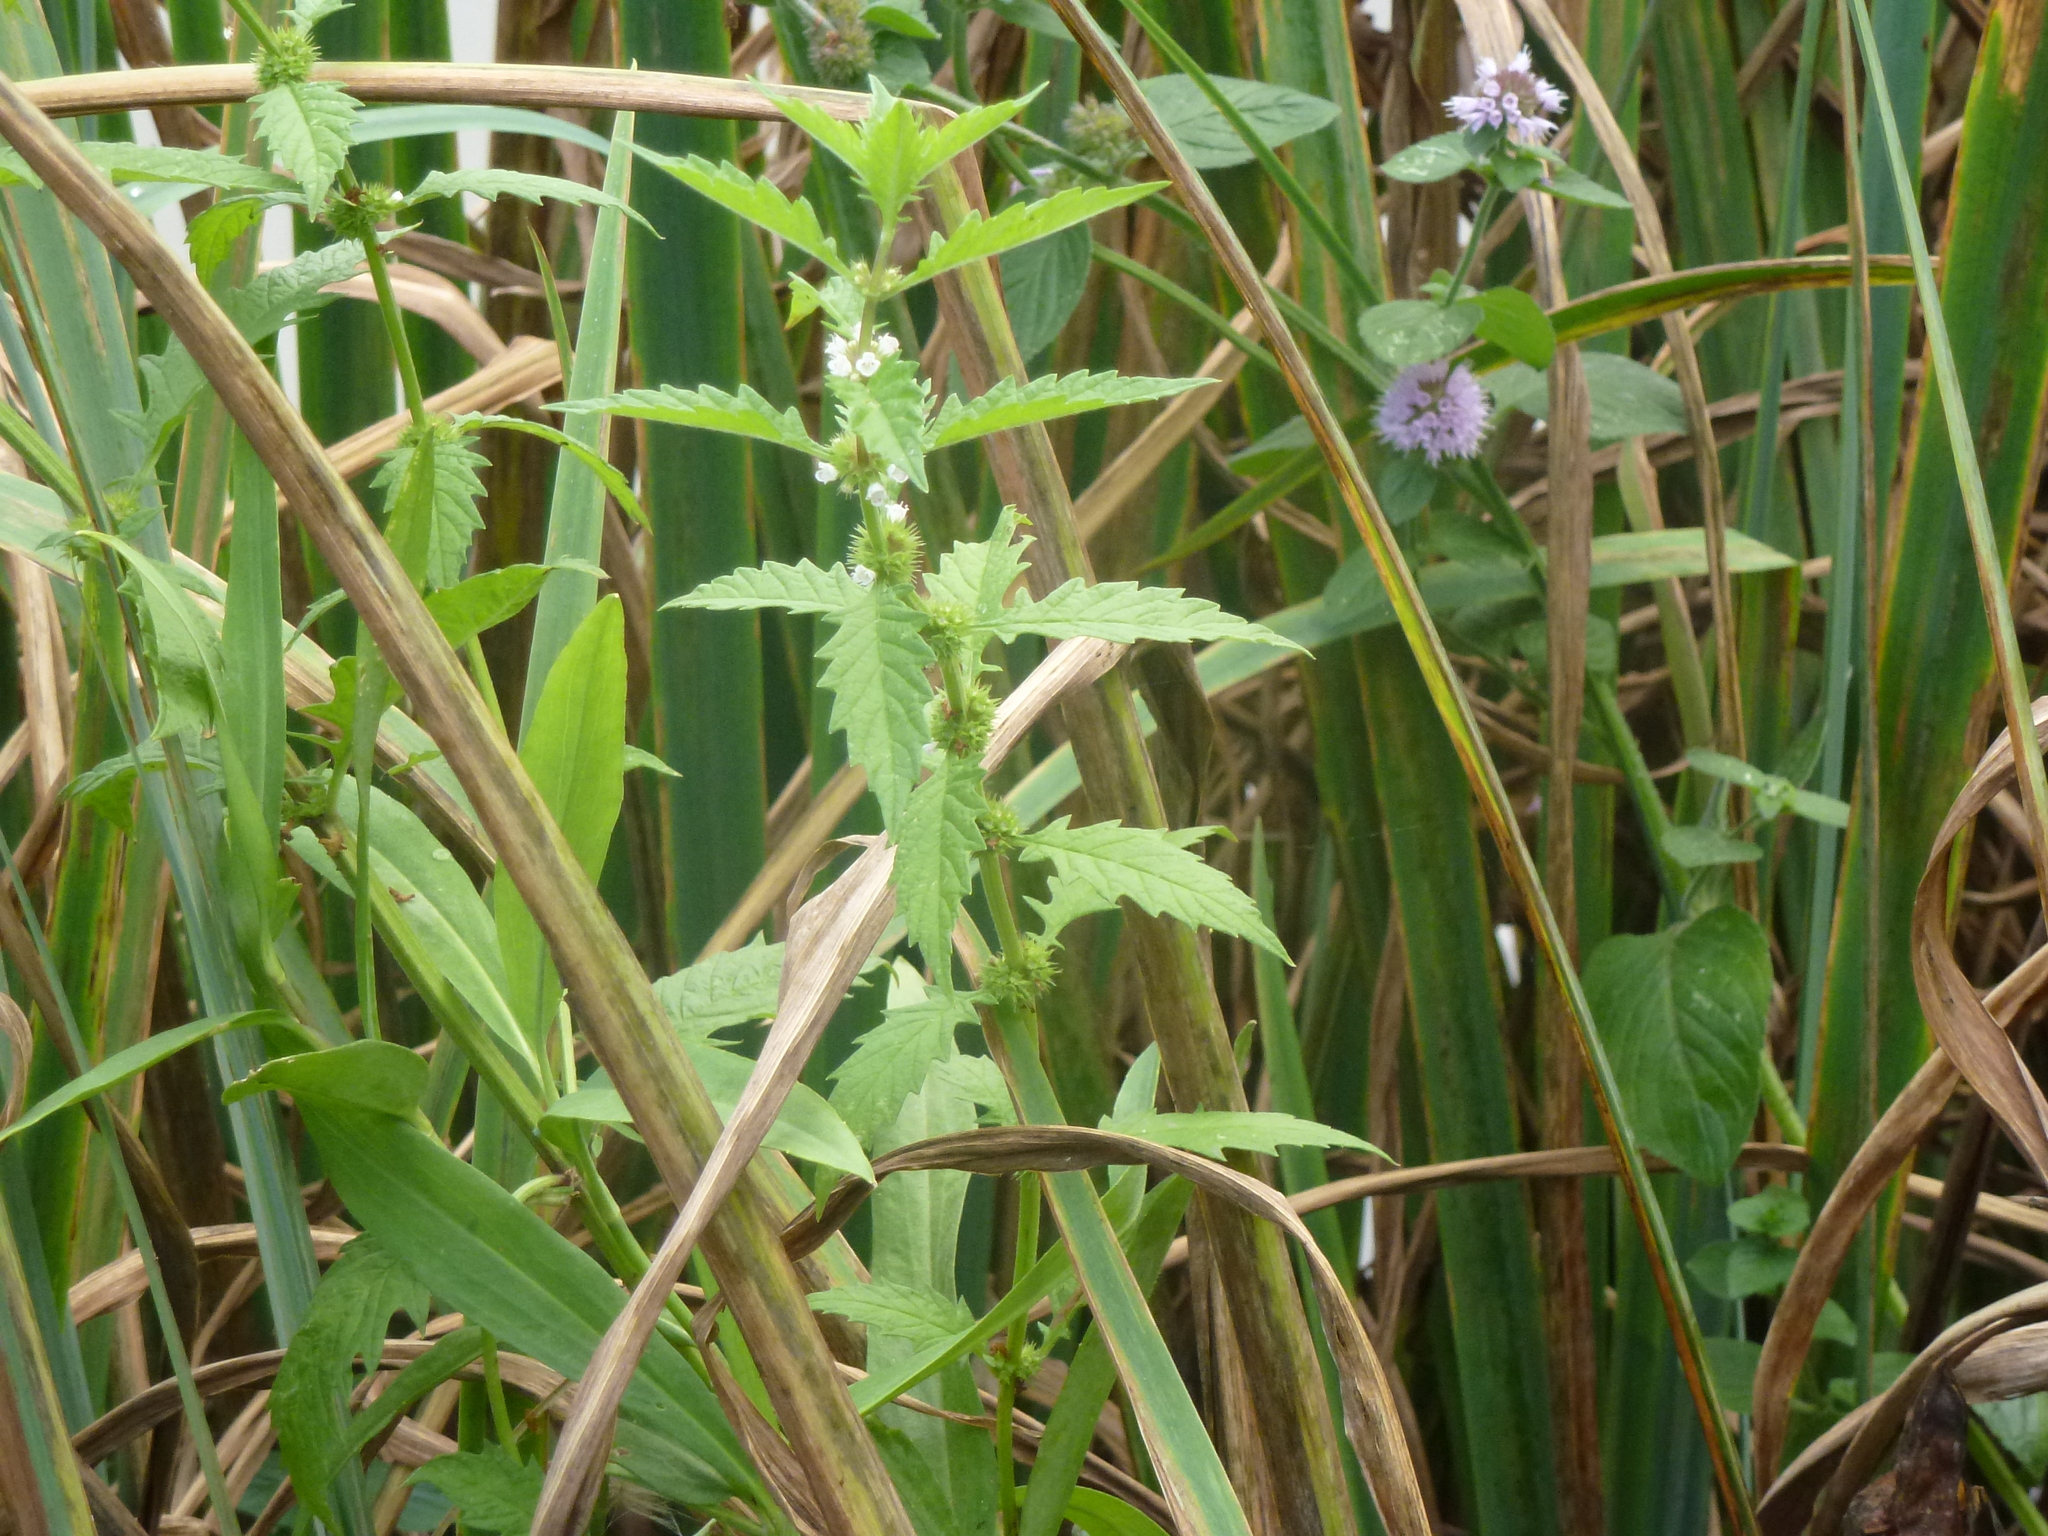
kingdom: Plantae
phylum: Tracheophyta
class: Magnoliopsida
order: Lamiales
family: Lamiaceae
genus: Lycopus
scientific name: Lycopus europaeus
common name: European bugleweed
